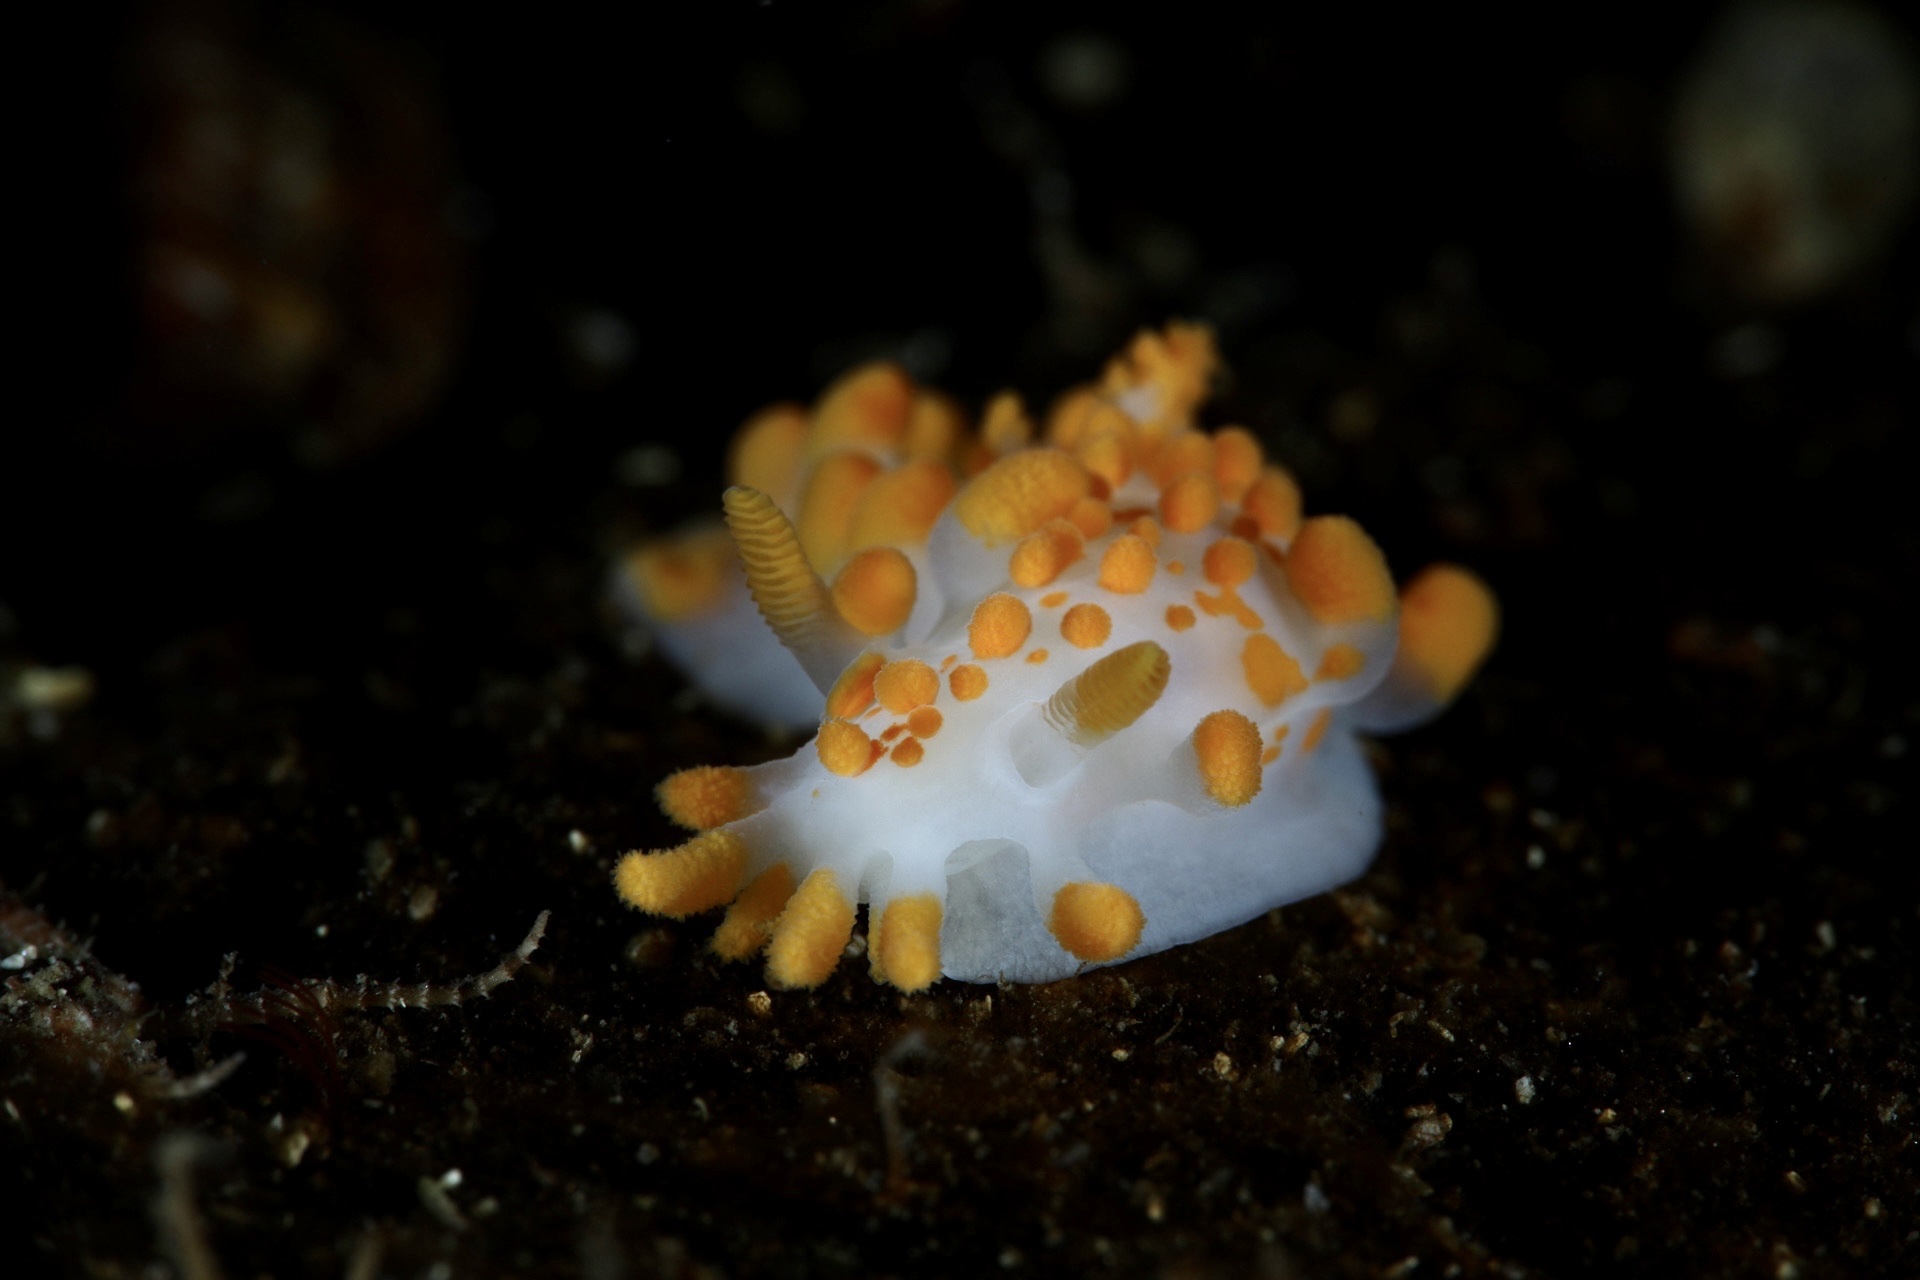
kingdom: Animalia
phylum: Mollusca
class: Gastropoda
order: Nudibranchia
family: Polyceridae
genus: Limacia
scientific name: Limacia clavigera
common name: Orange-clubbed sea slug
